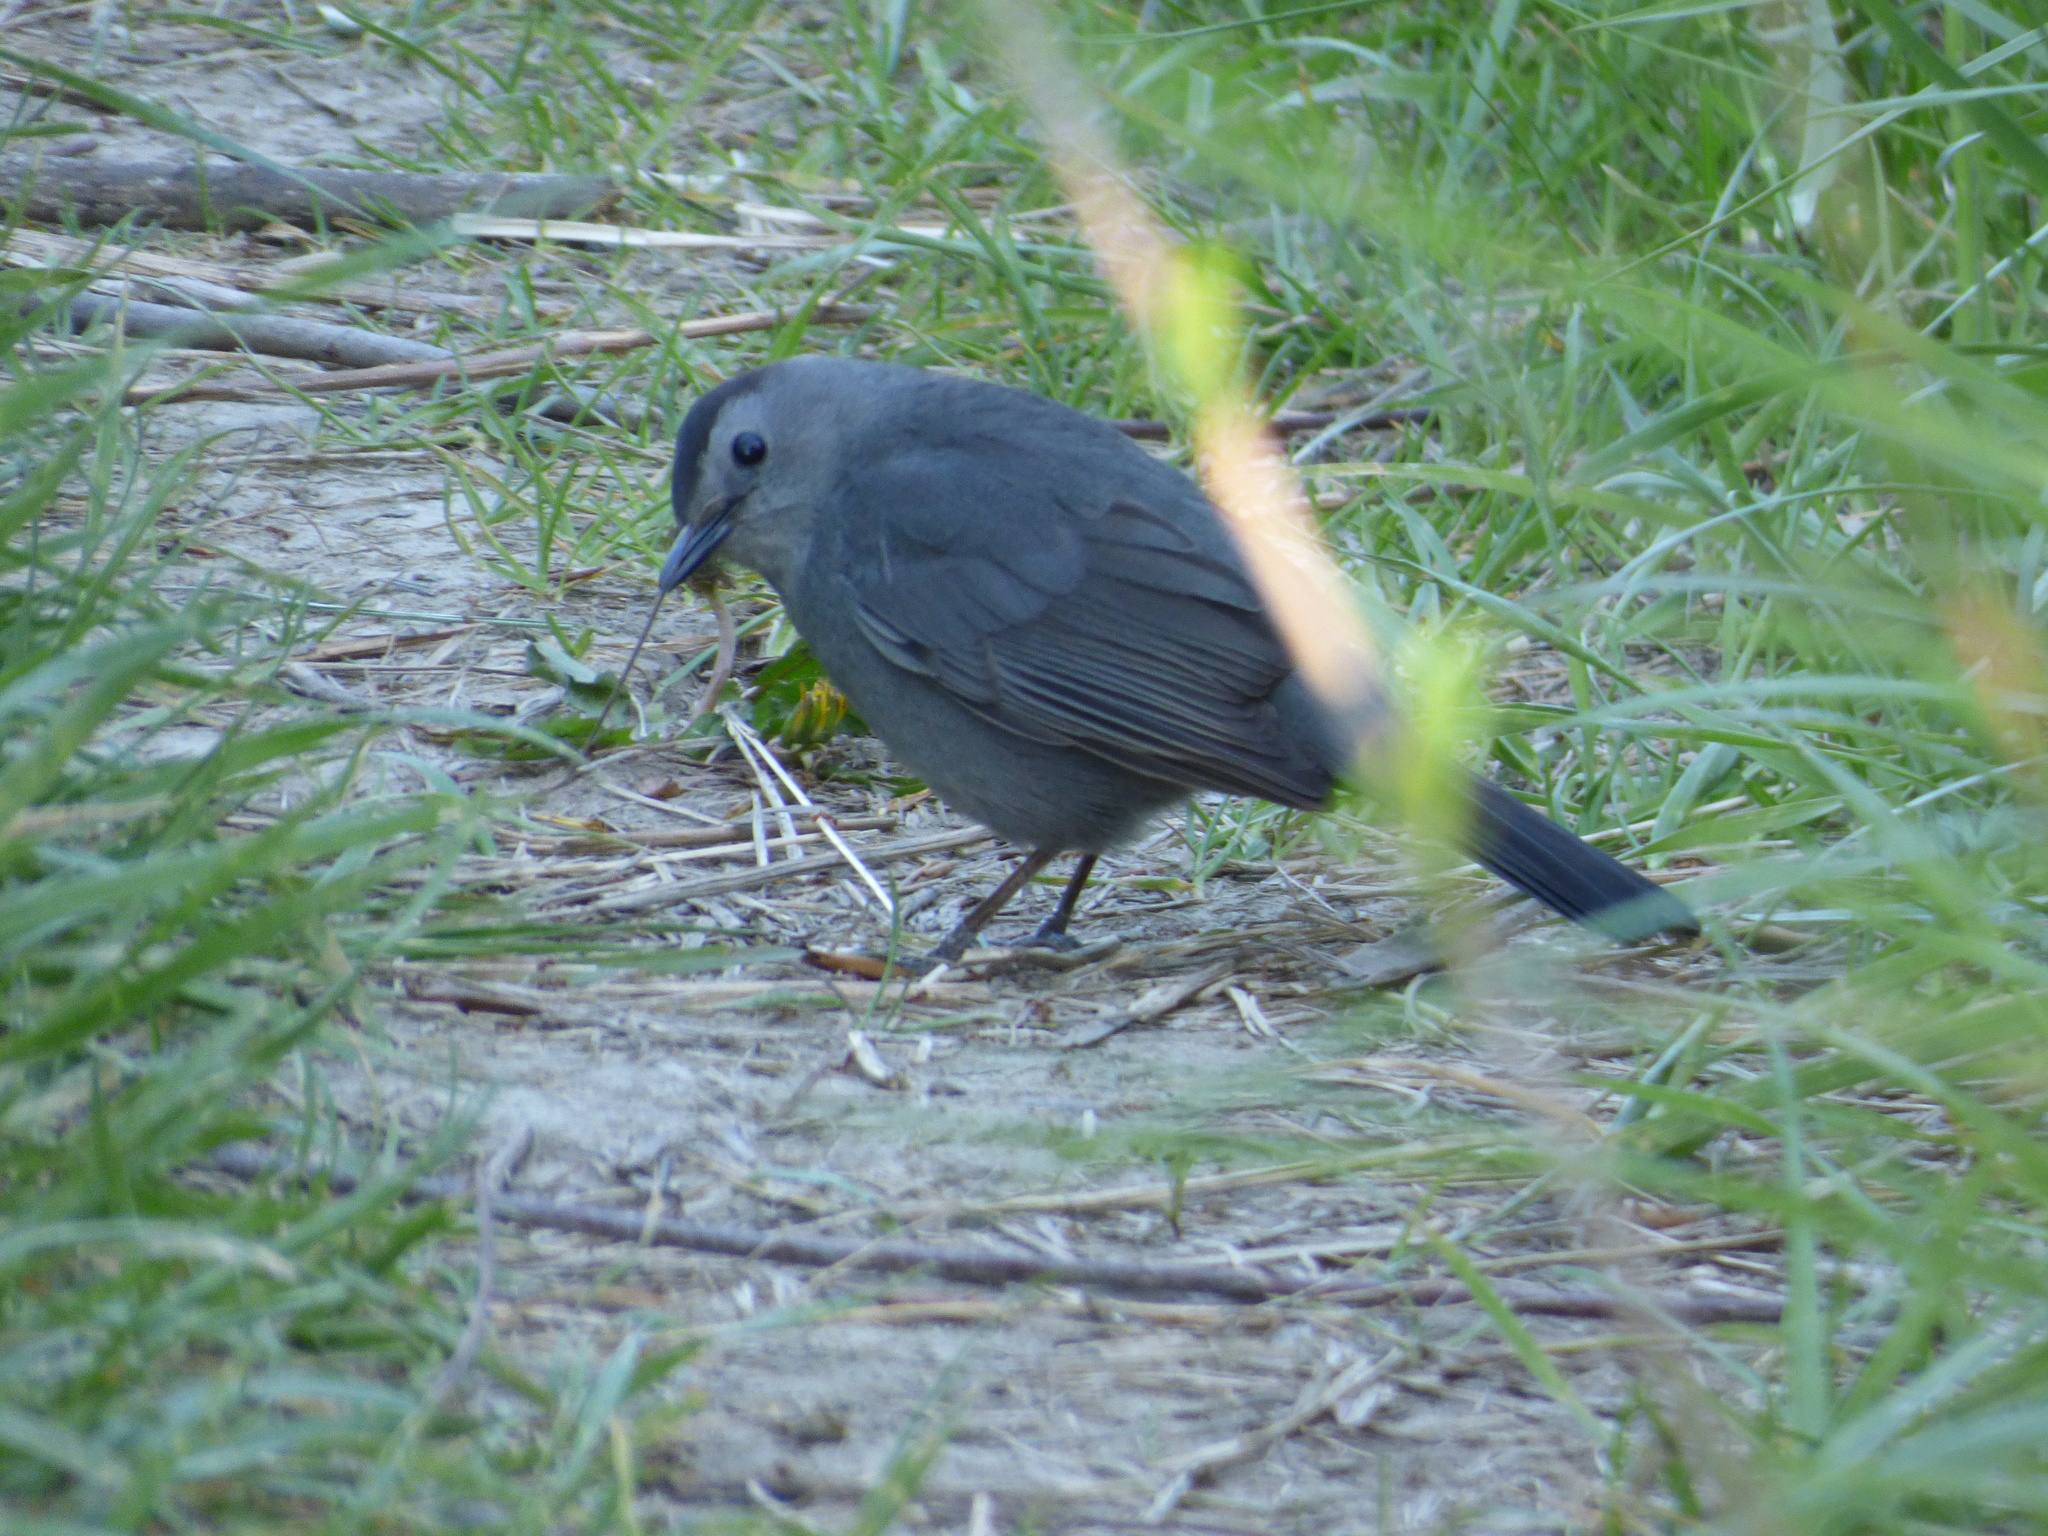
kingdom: Animalia
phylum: Chordata
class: Aves
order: Passeriformes
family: Mimidae
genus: Dumetella
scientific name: Dumetella carolinensis
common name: Gray catbird
